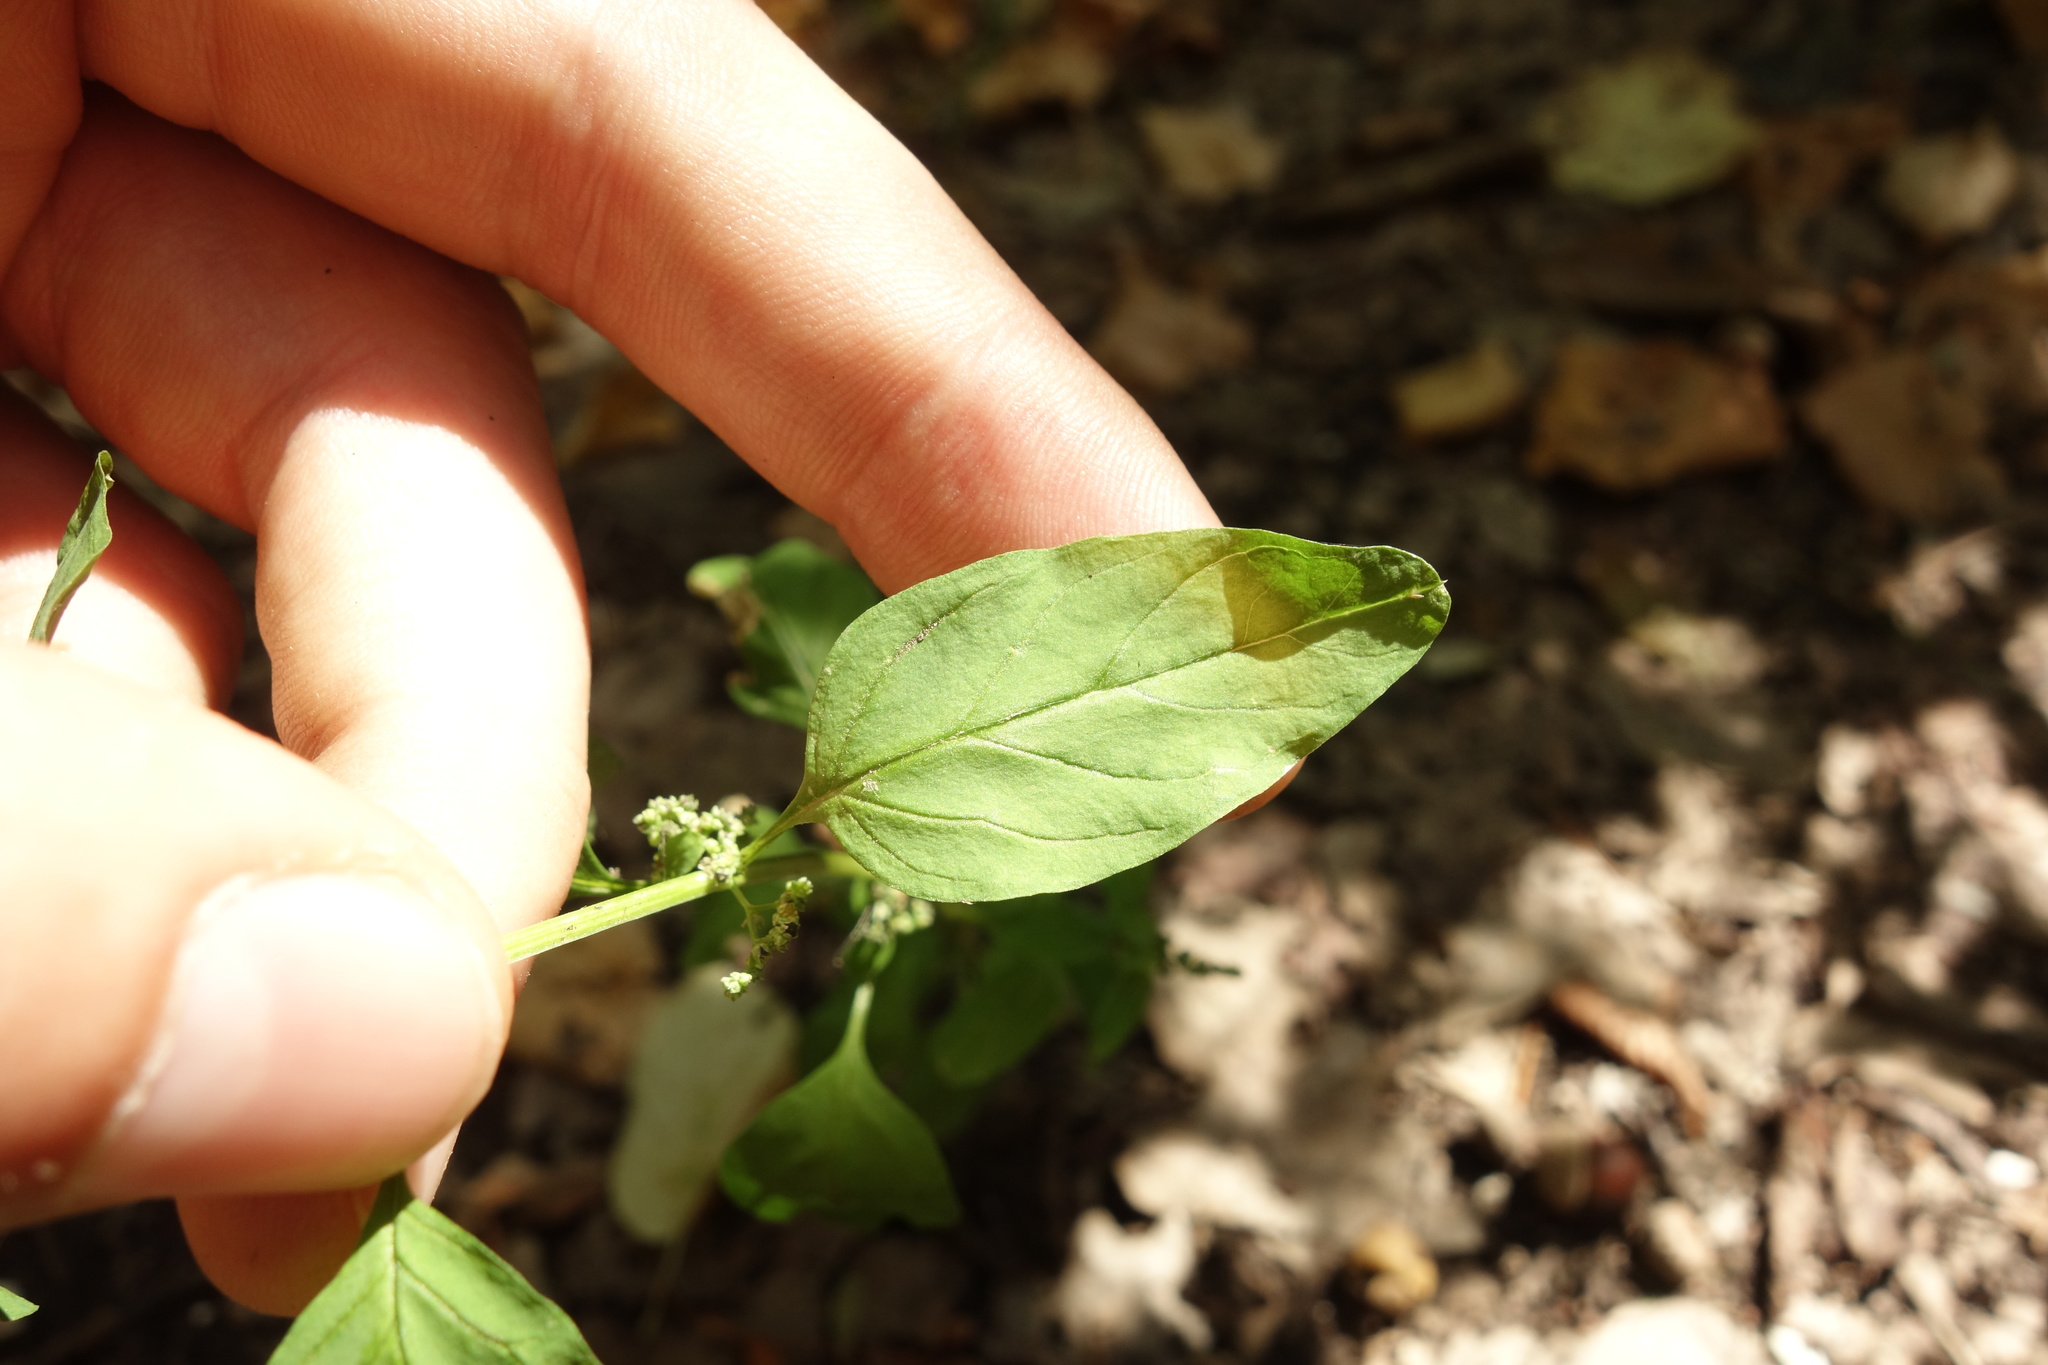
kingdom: Plantae
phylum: Tracheophyta
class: Magnoliopsida
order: Caryophyllales
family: Amaranthaceae
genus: Lipandra
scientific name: Lipandra polysperma
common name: Many-seed goosefoot
